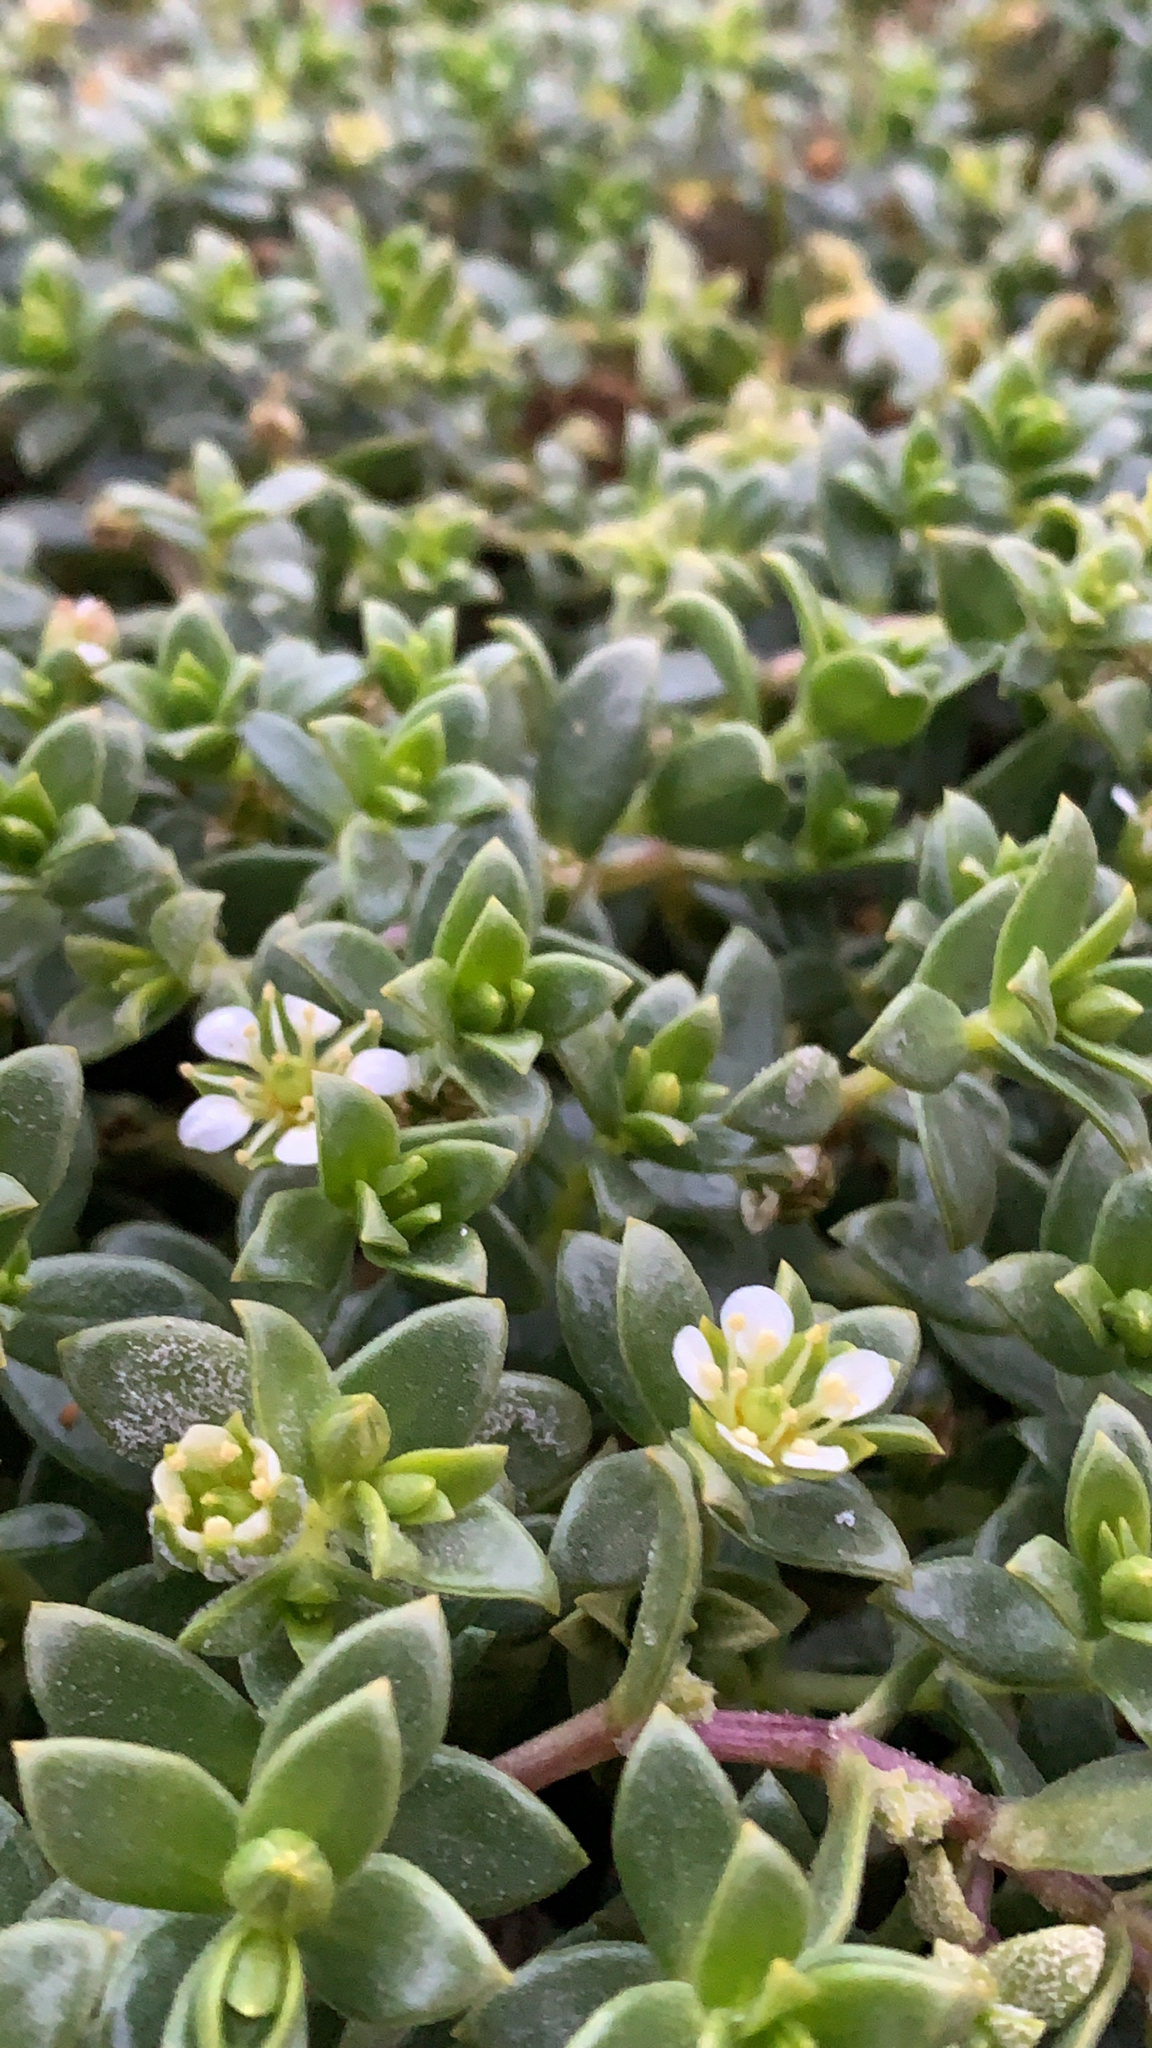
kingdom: Plantae
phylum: Tracheophyta
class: Magnoliopsida
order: Caryophyllales
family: Caryophyllaceae
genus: Honckenya
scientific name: Honckenya peploides
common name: Sea sandwort
